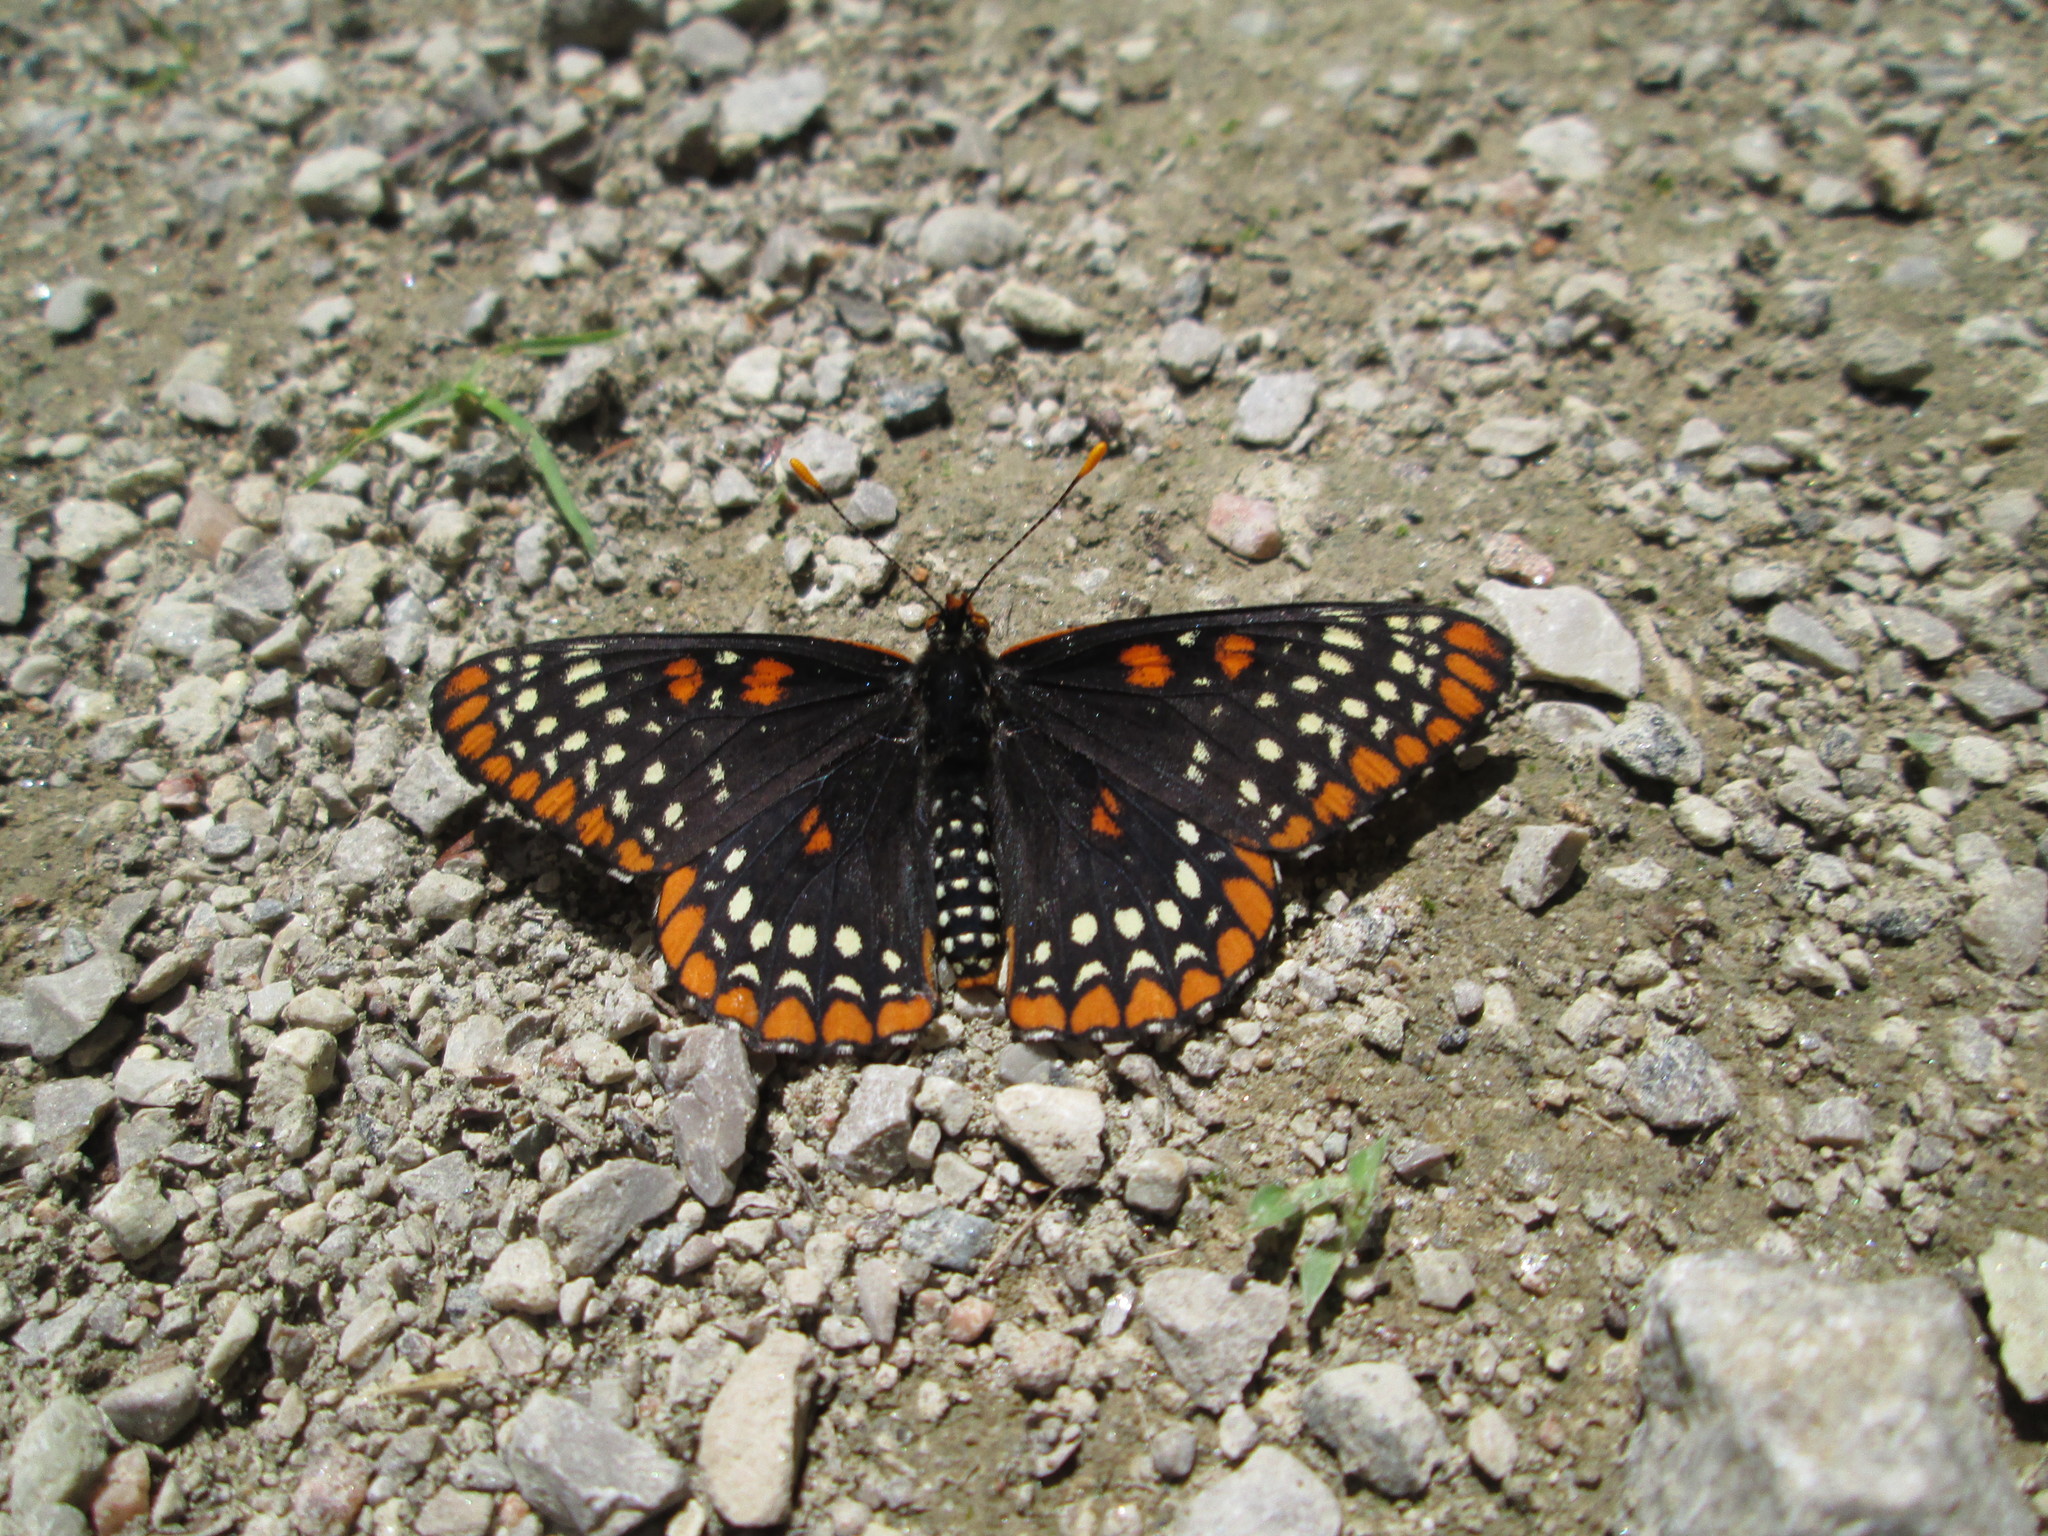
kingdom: Animalia
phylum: Arthropoda
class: Insecta
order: Lepidoptera
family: Nymphalidae
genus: Euphydryas
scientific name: Euphydryas phaeton
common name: Baltimore checkerspot
